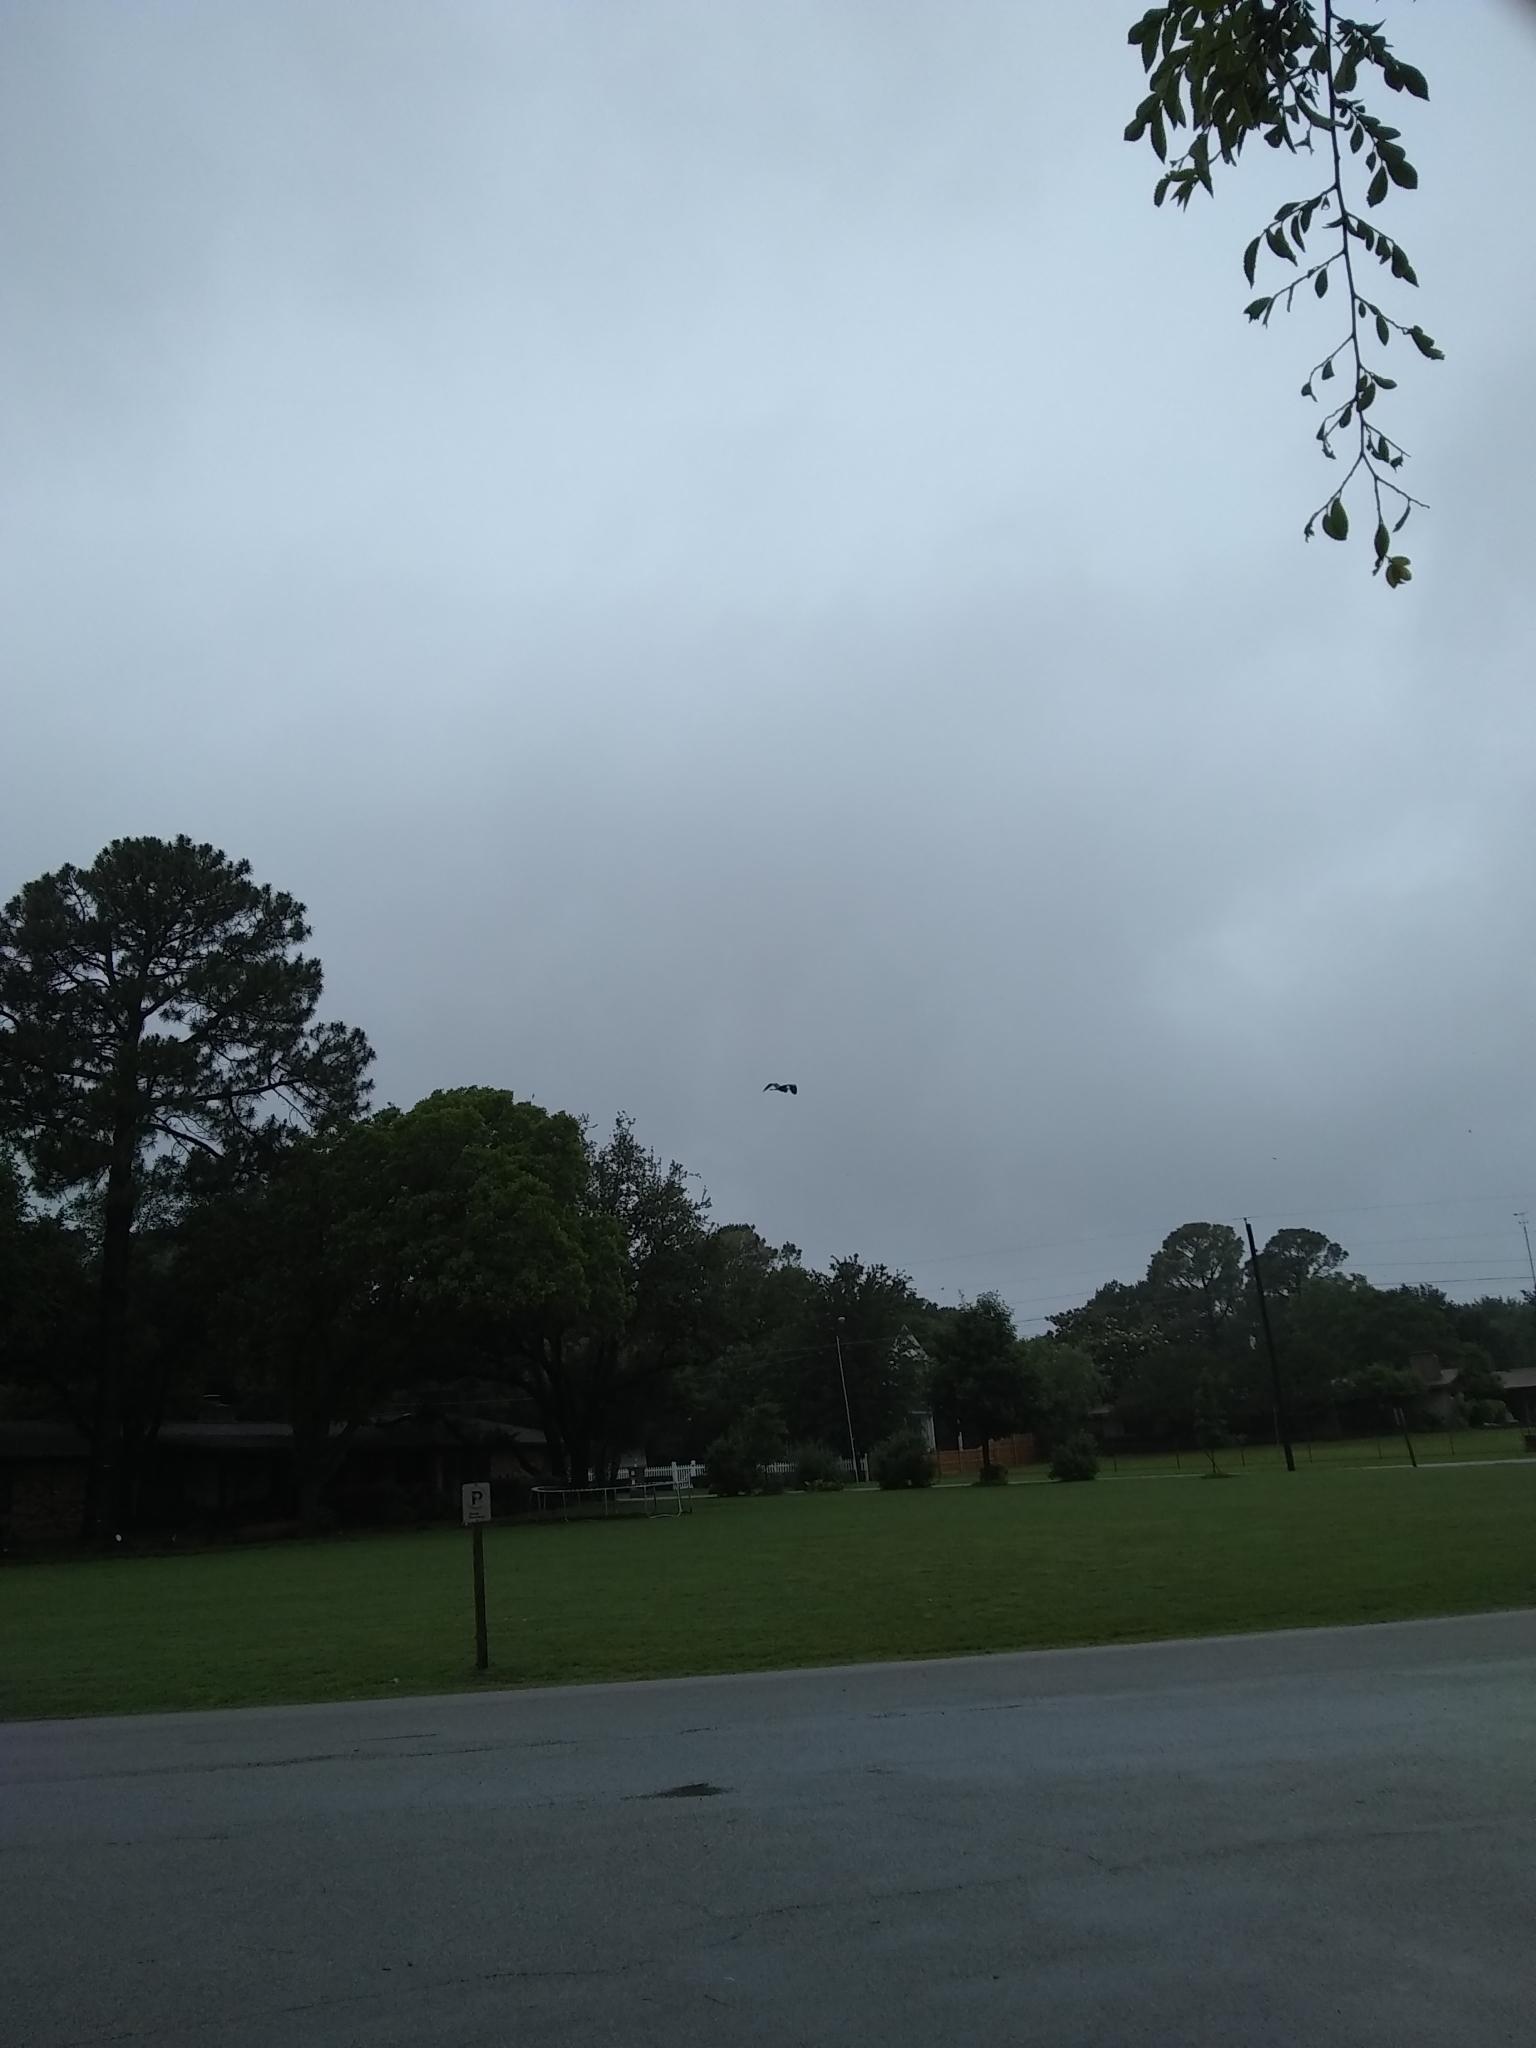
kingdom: Animalia
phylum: Chordata
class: Aves
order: Pelecaniformes
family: Ardeidae
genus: Ardea
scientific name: Ardea herodias
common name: Great blue heron
